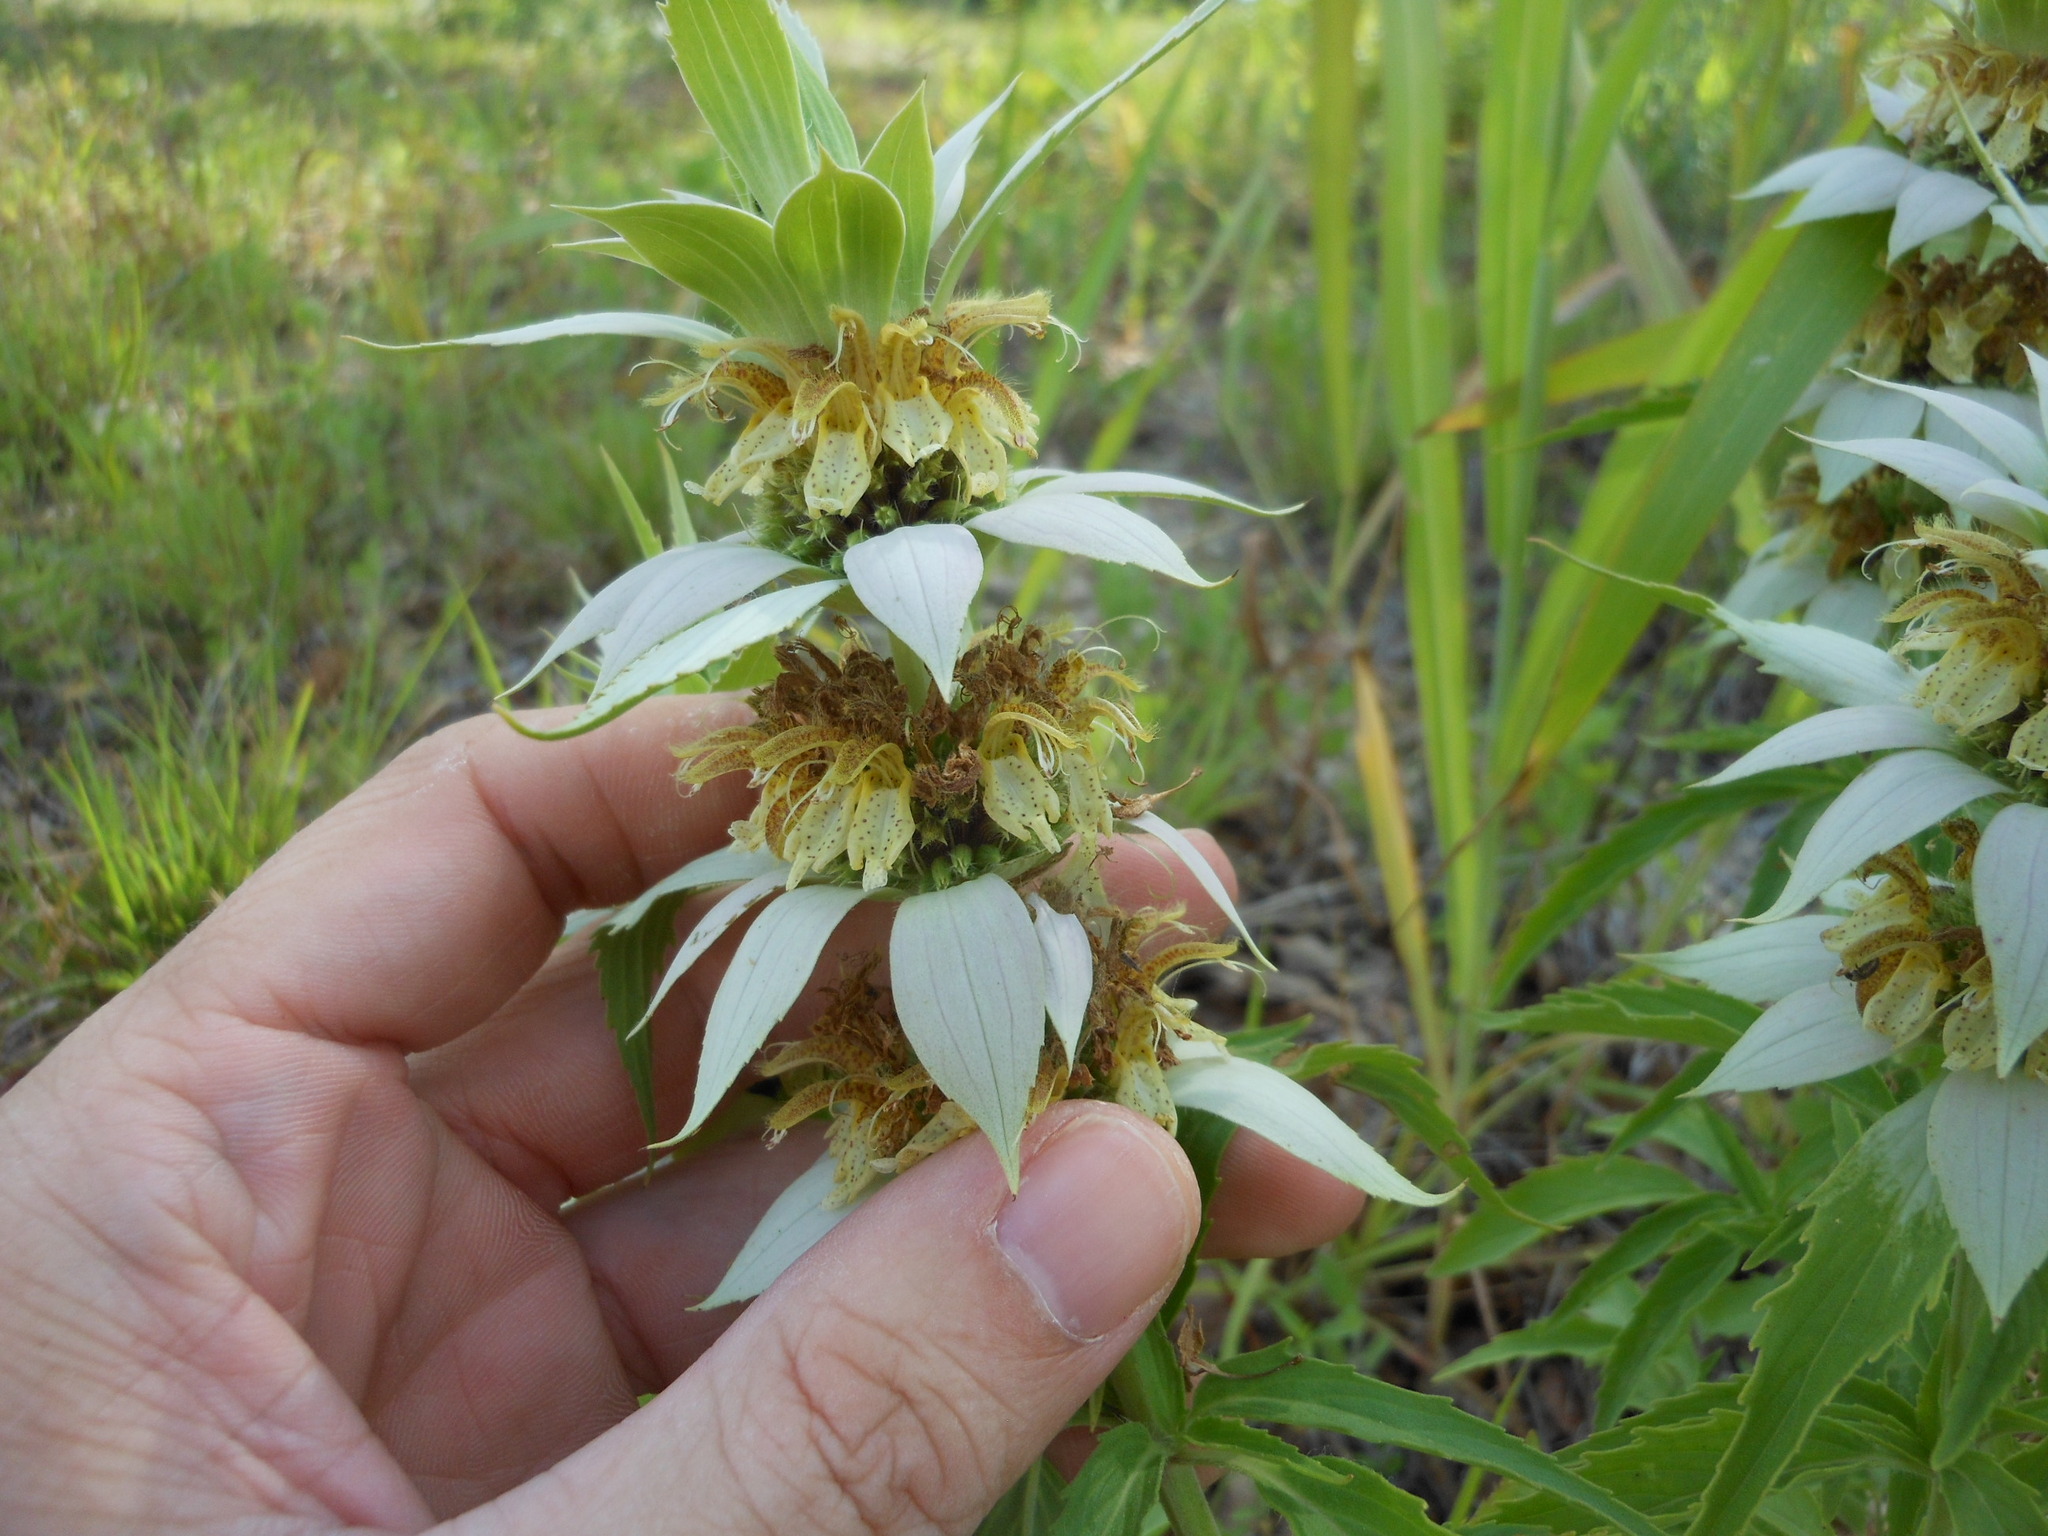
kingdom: Plantae
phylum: Tracheophyta
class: Magnoliopsida
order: Lamiales
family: Lamiaceae
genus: Monarda
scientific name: Monarda punctata
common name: Dotted monarda
